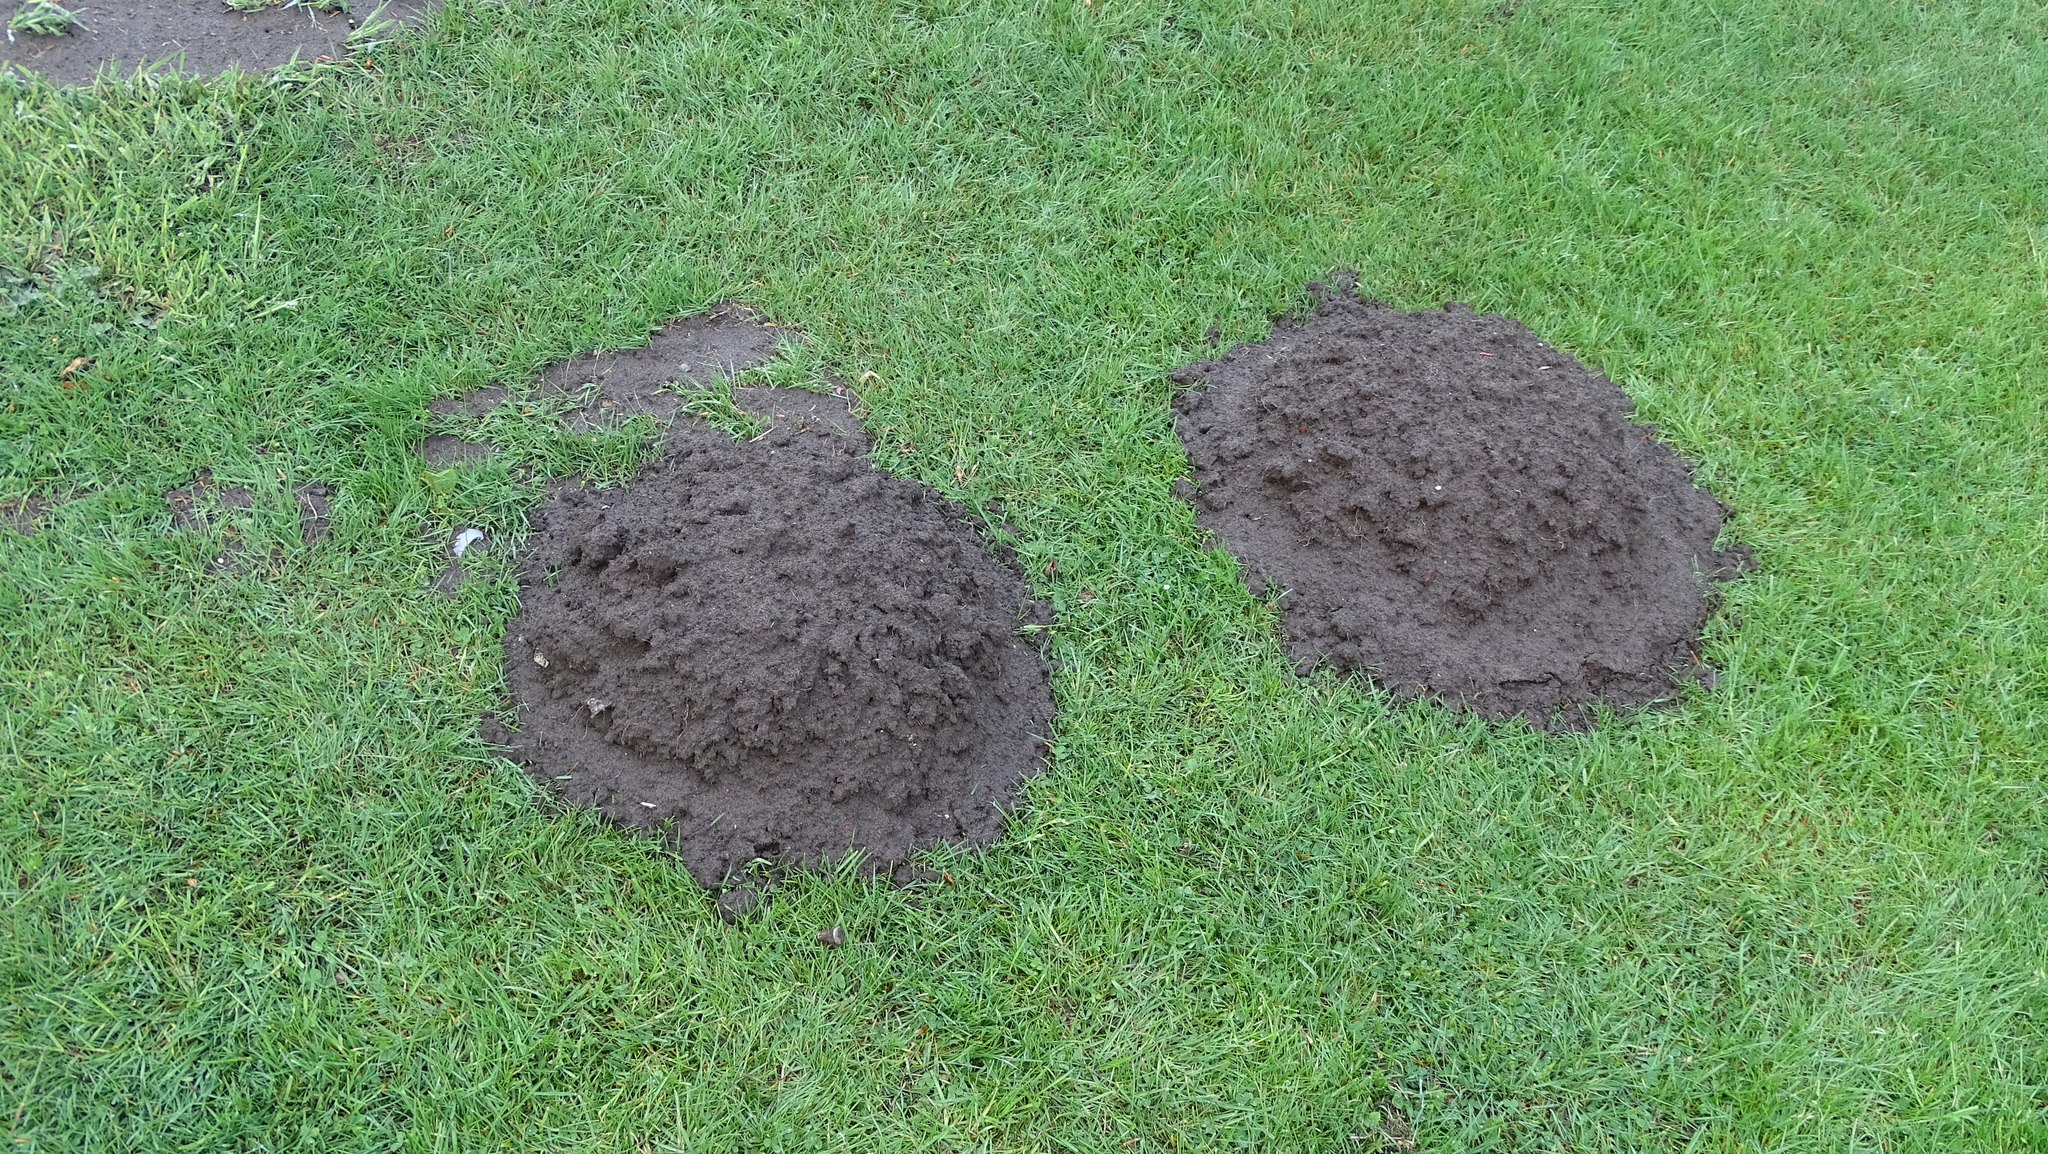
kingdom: Animalia
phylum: Chordata
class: Mammalia
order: Soricomorpha
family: Talpidae
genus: Talpa
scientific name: Talpa europaea
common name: European mole
